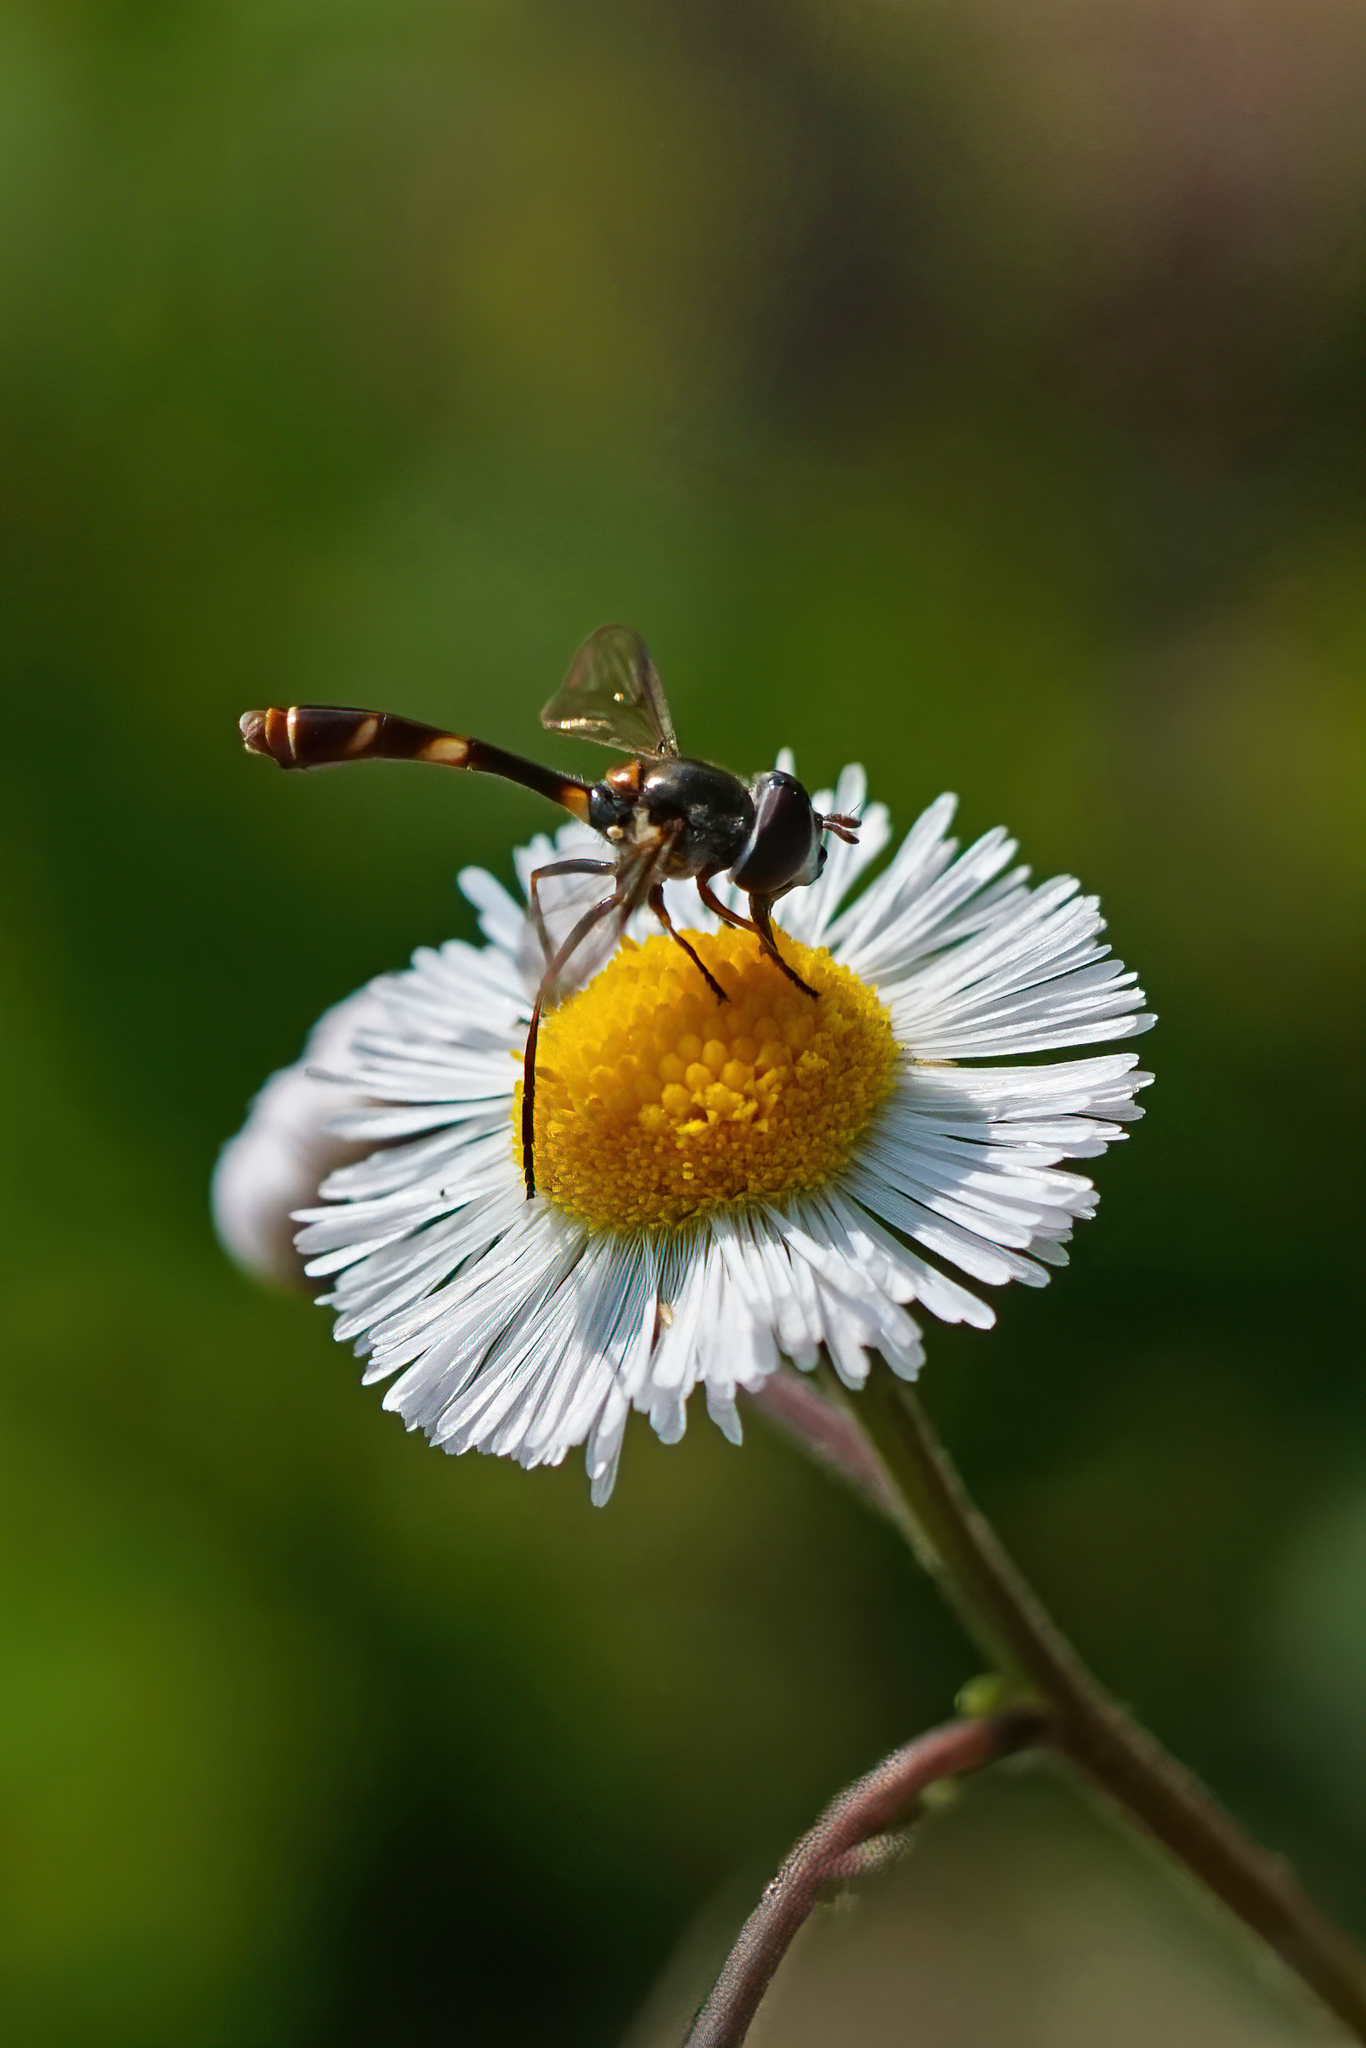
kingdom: Animalia
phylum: Arthropoda
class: Insecta
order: Diptera
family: Syrphidae
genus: Dioprosopa
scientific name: Dioprosopa clavatus
